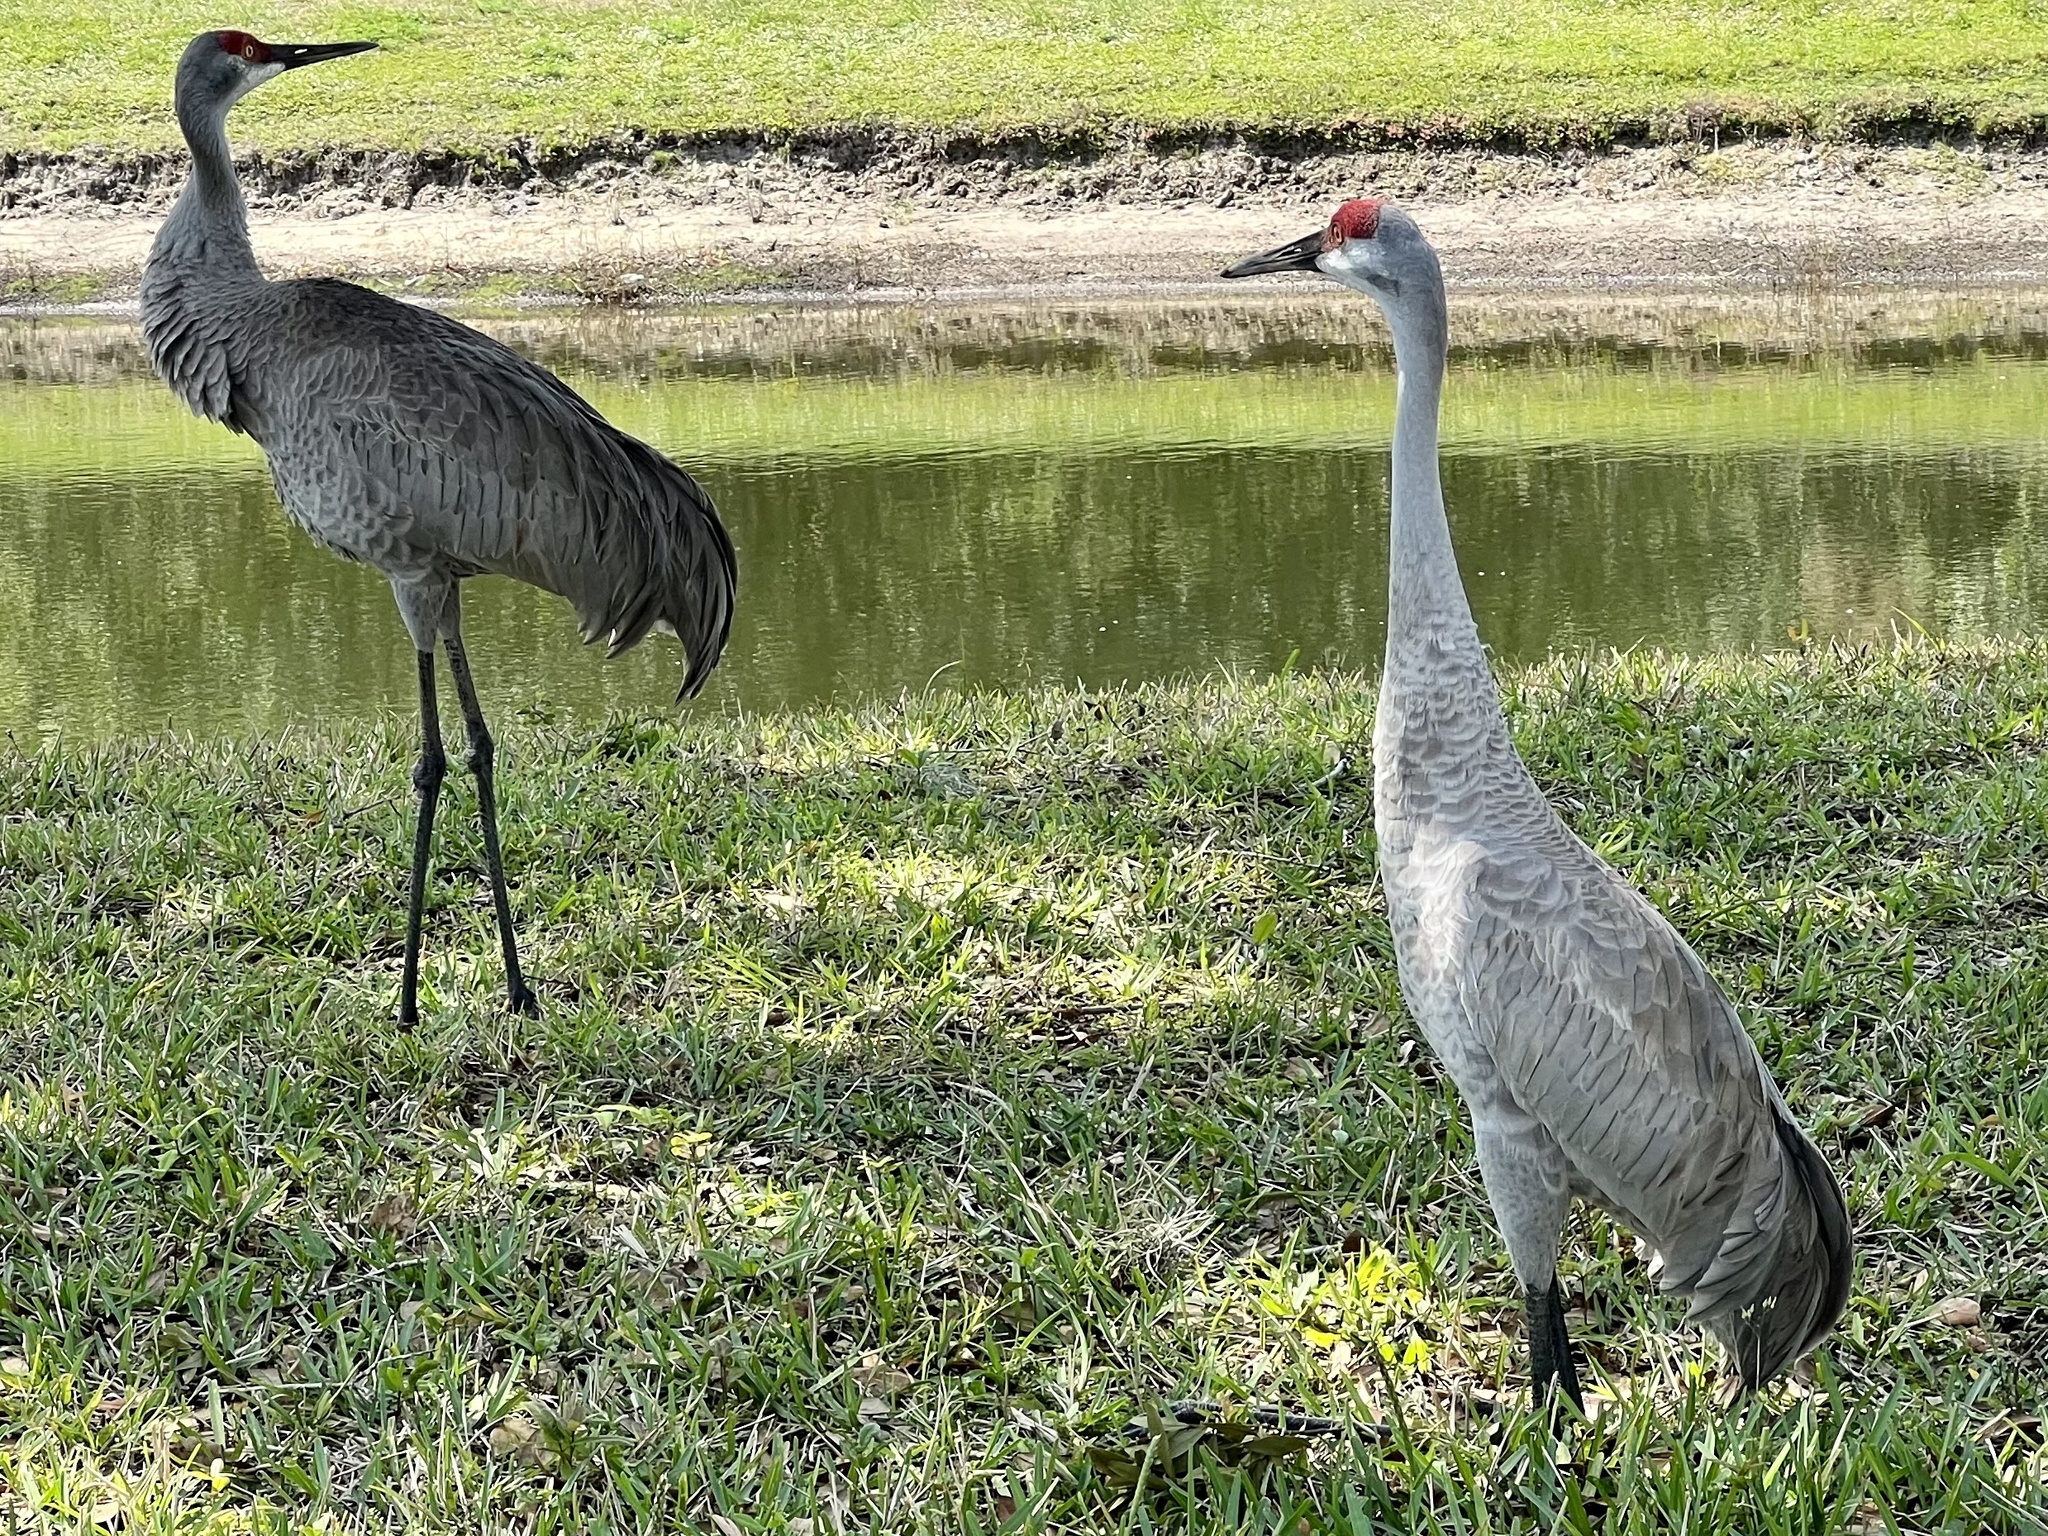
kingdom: Animalia
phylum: Chordata
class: Aves
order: Gruiformes
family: Gruidae
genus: Grus
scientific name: Grus canadensis
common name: Sandhill crane
